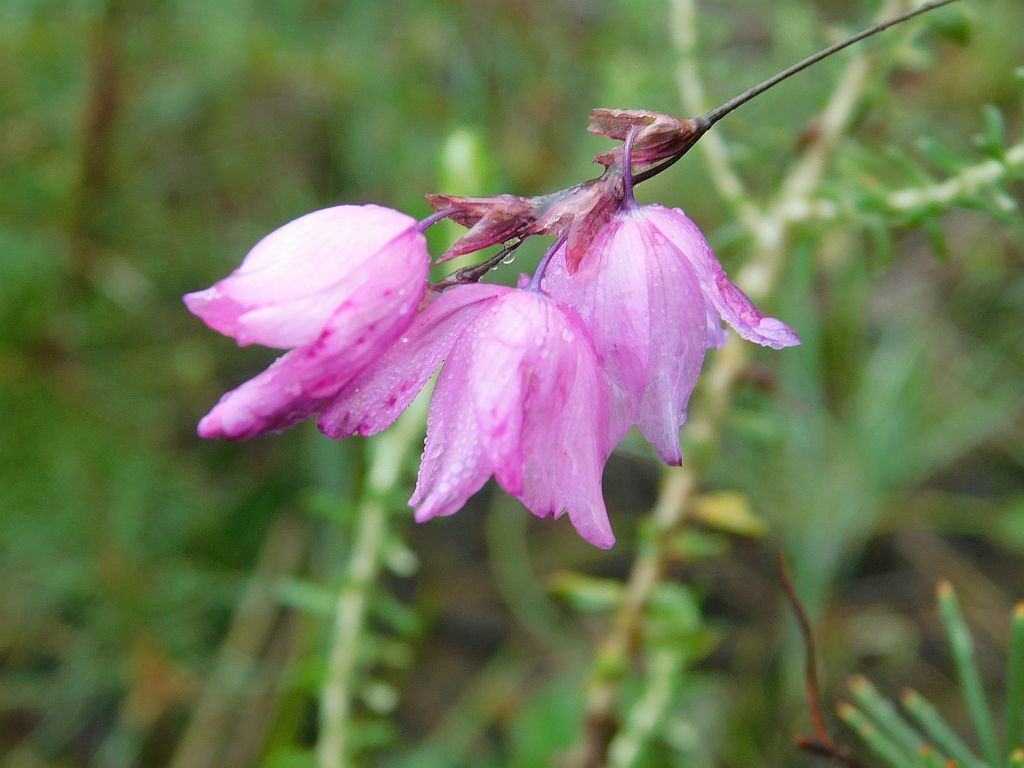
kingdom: Plantae
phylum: Tracheophyta
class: Liliopsida
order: Asparagales
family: Iridaceae
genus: Ixia
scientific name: Ixia micrandra
